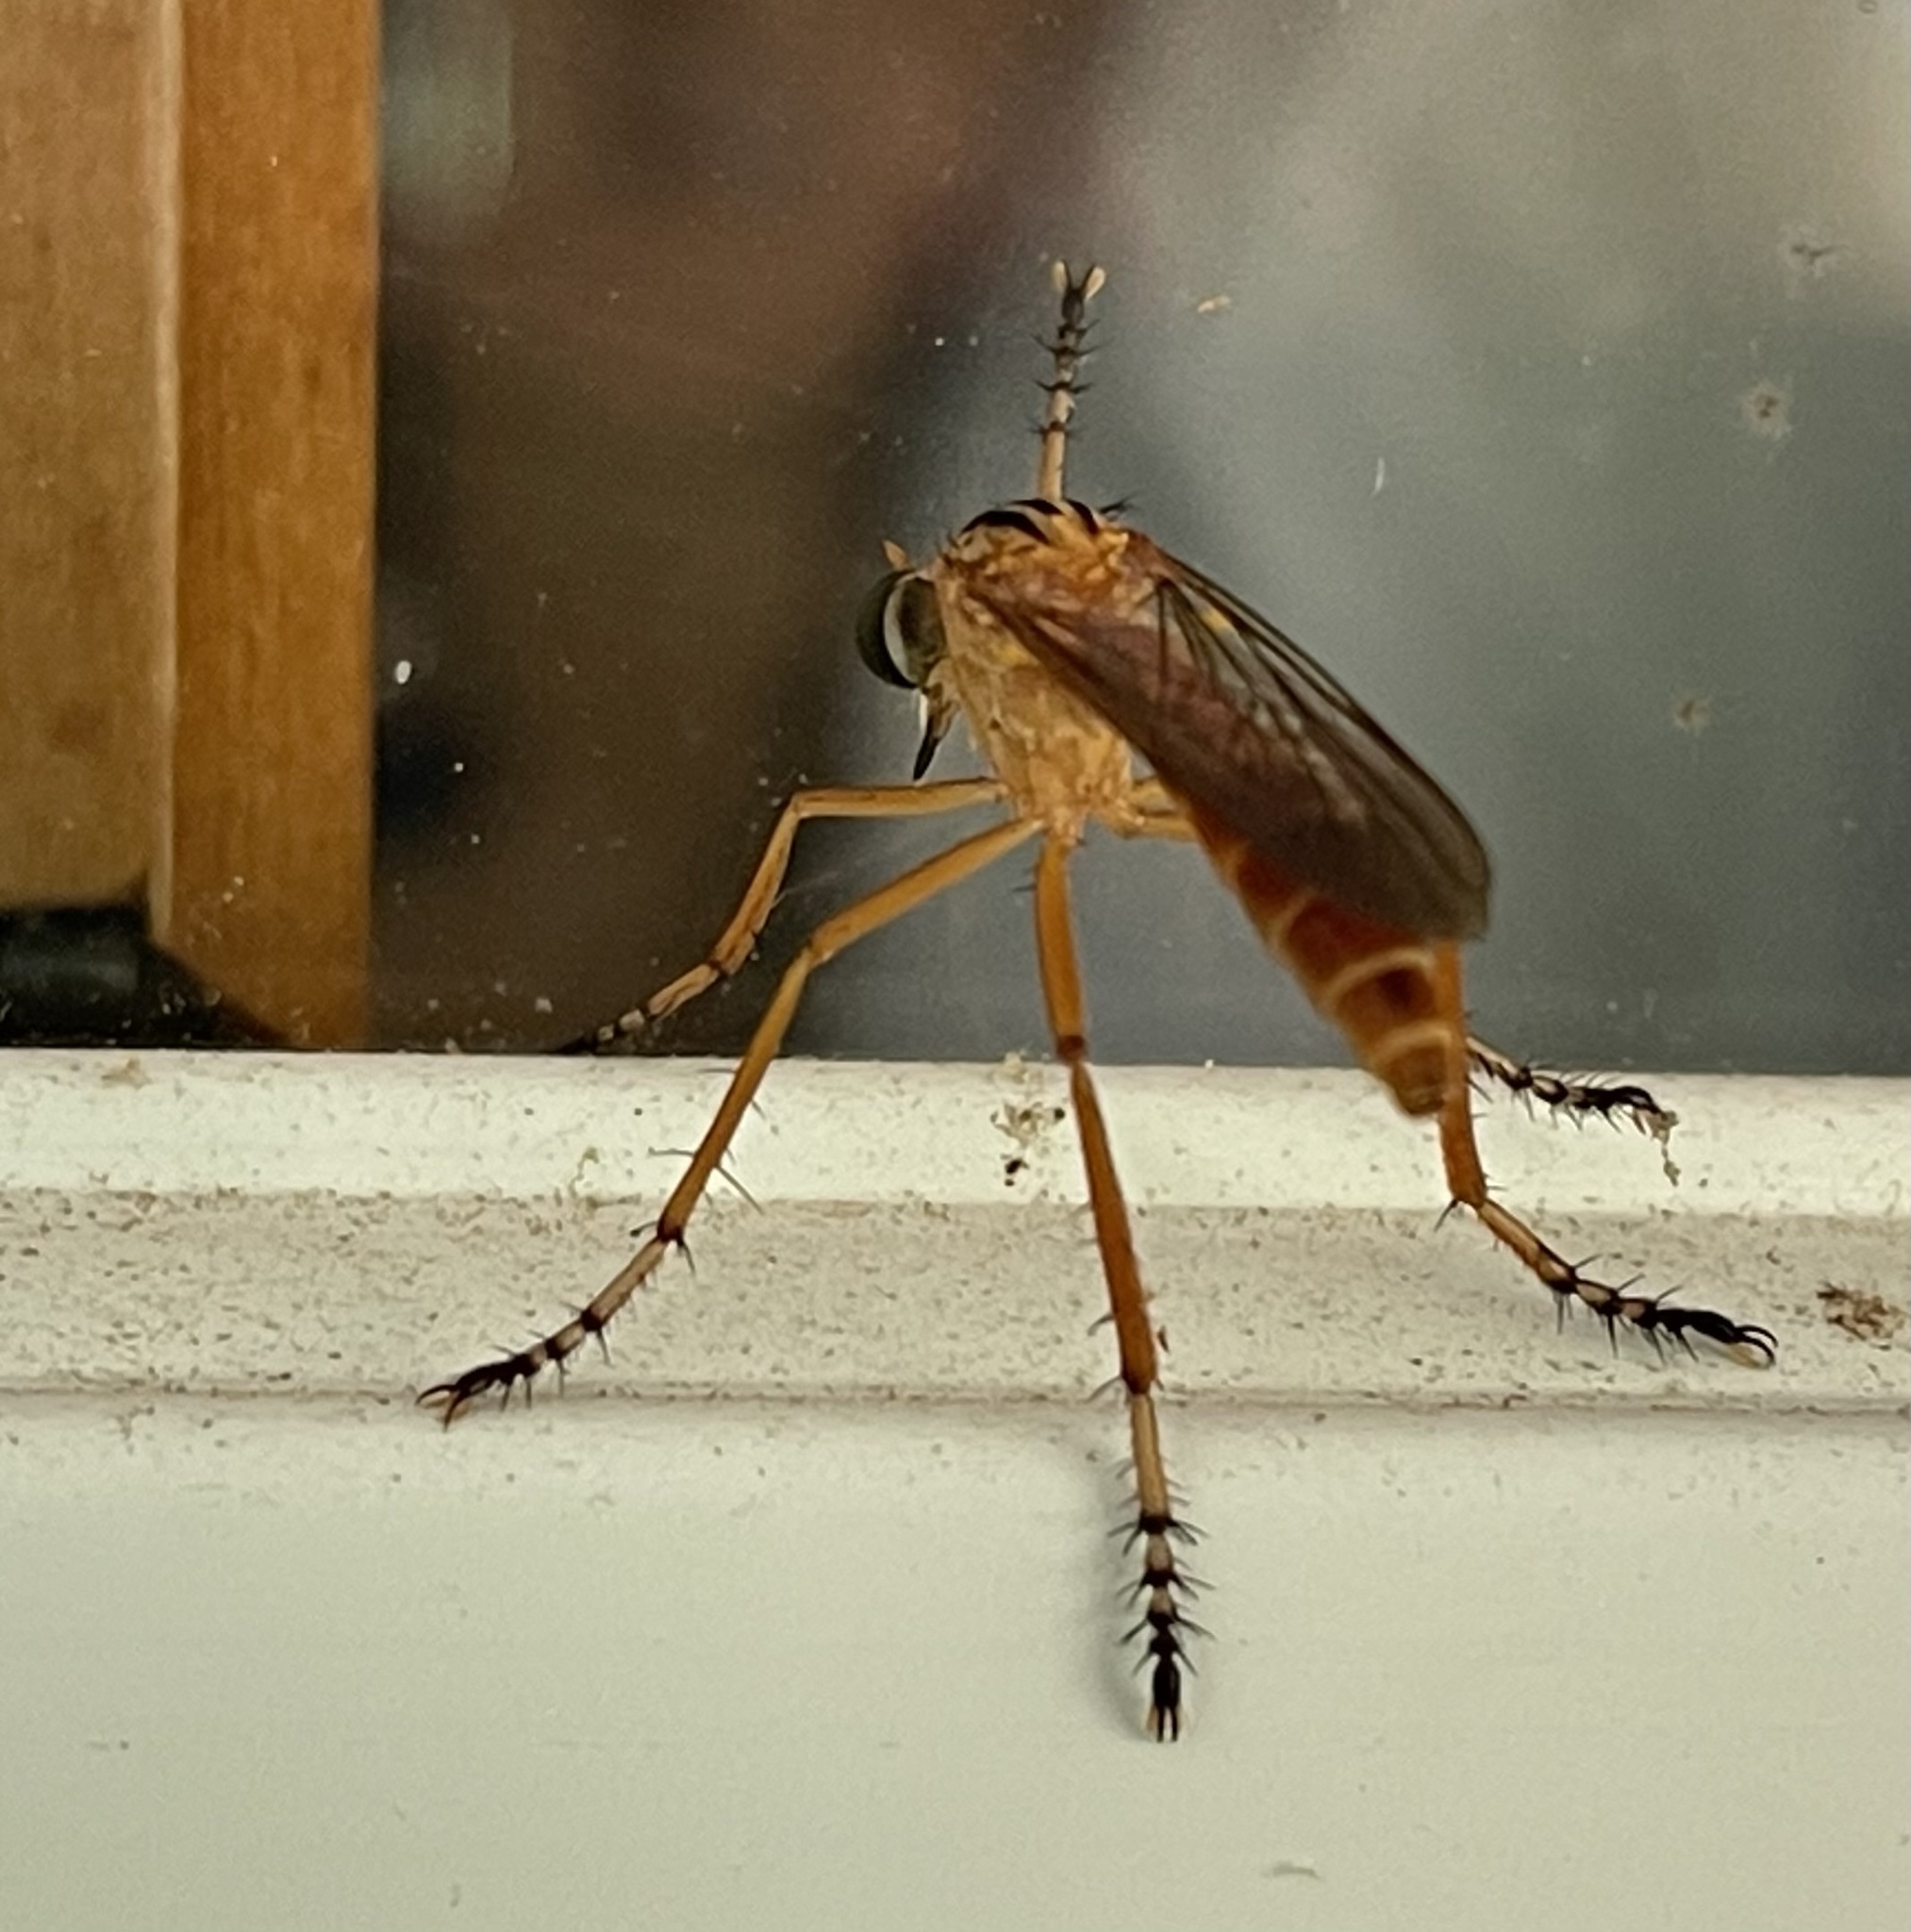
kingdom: Animalia
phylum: Arthropoda
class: Insecta
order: Diptera
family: Asilidae
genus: Diogmites
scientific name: Diogmites neoternatus
